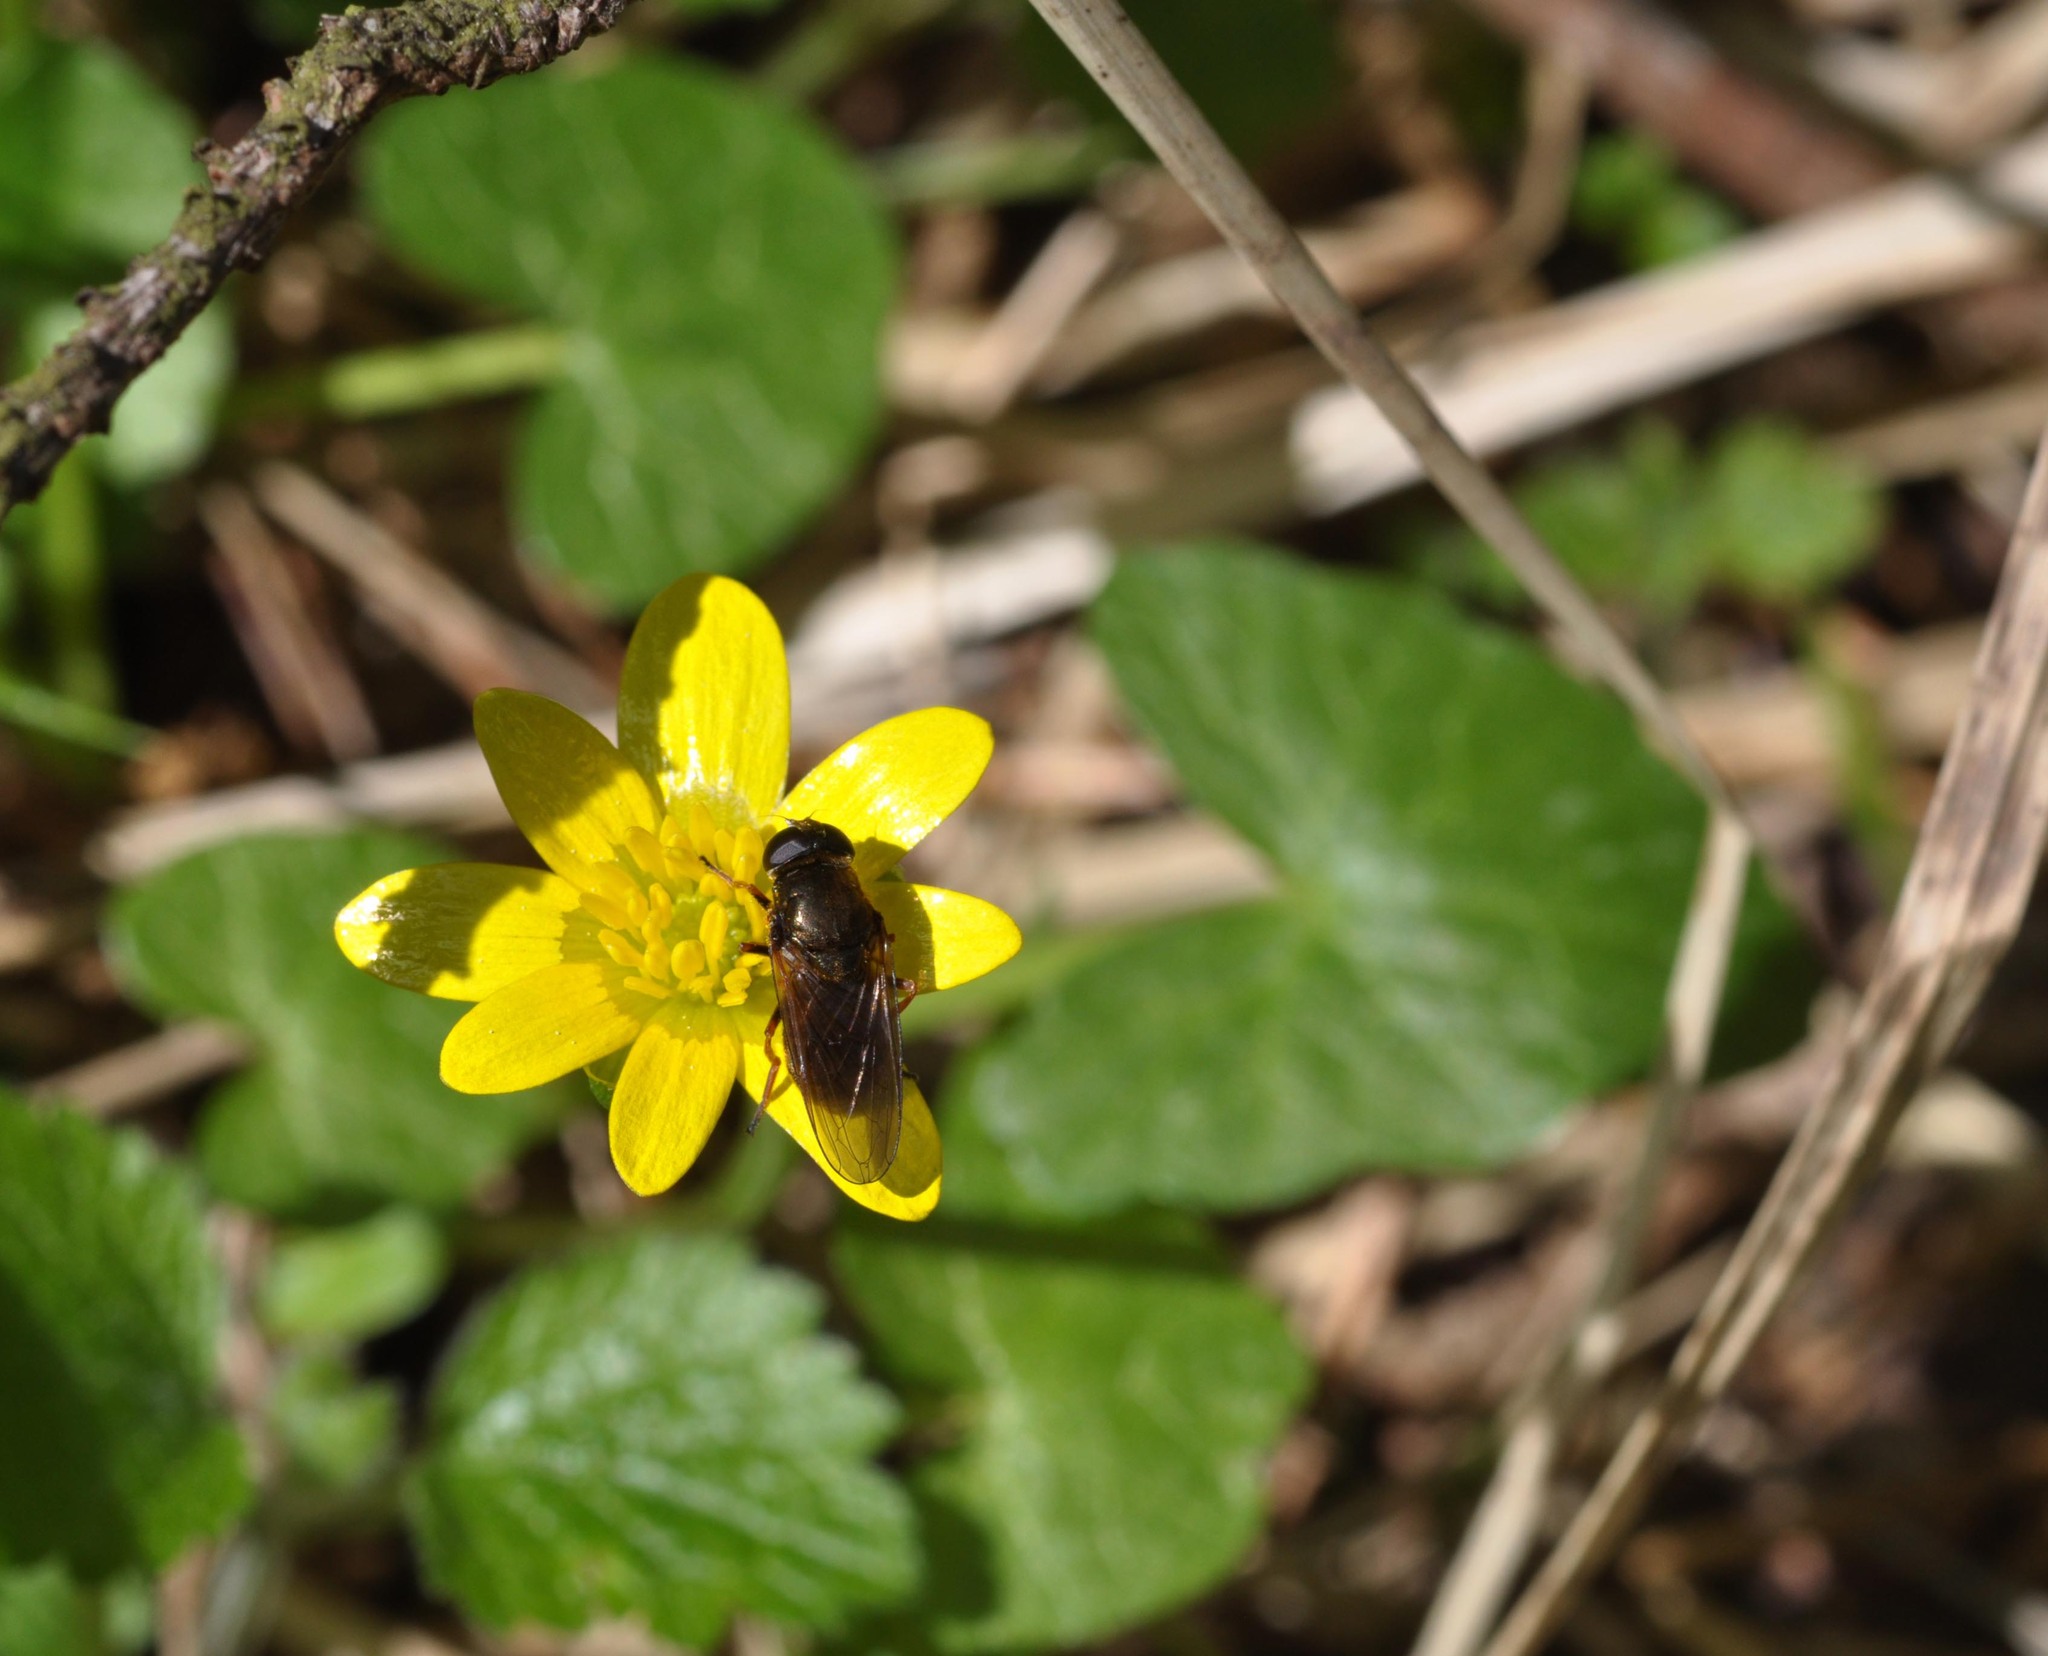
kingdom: Animalia
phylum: Arthropoda
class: Insecta
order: Diptera
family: Syrphidae
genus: Cheilosia
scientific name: Cheilosia
